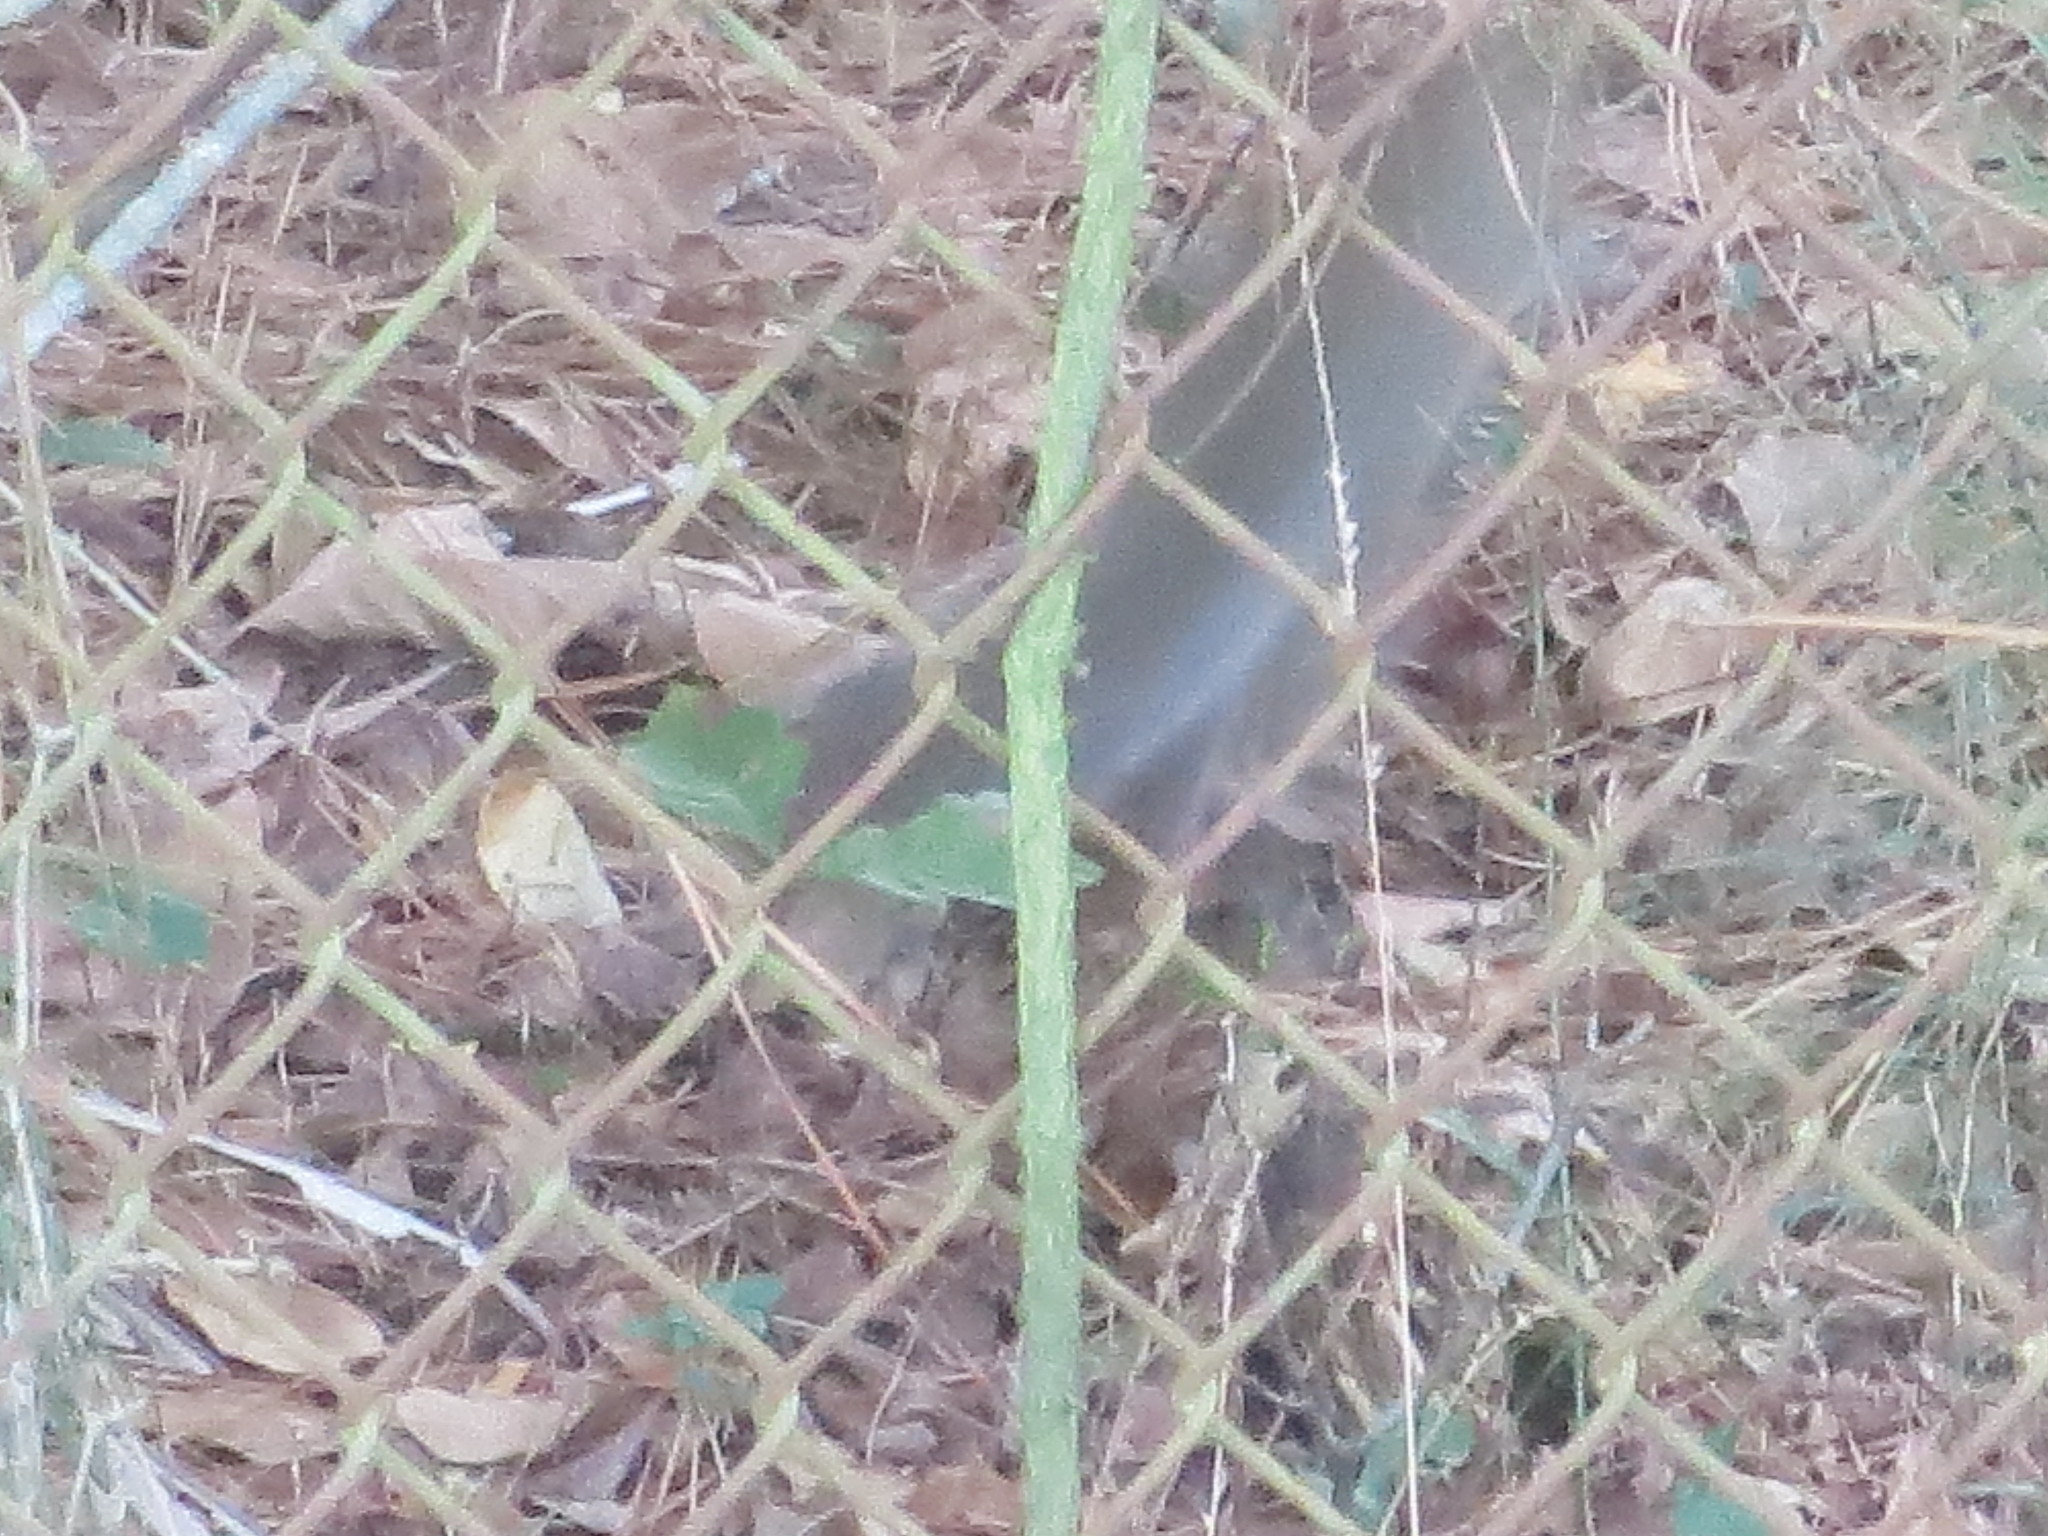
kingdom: Animalia
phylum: Chordata
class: Mammalia
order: Rodentia
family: Sciuridae
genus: Sciurus
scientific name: Sciurus carolinensis
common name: Eastern gray squirrel
